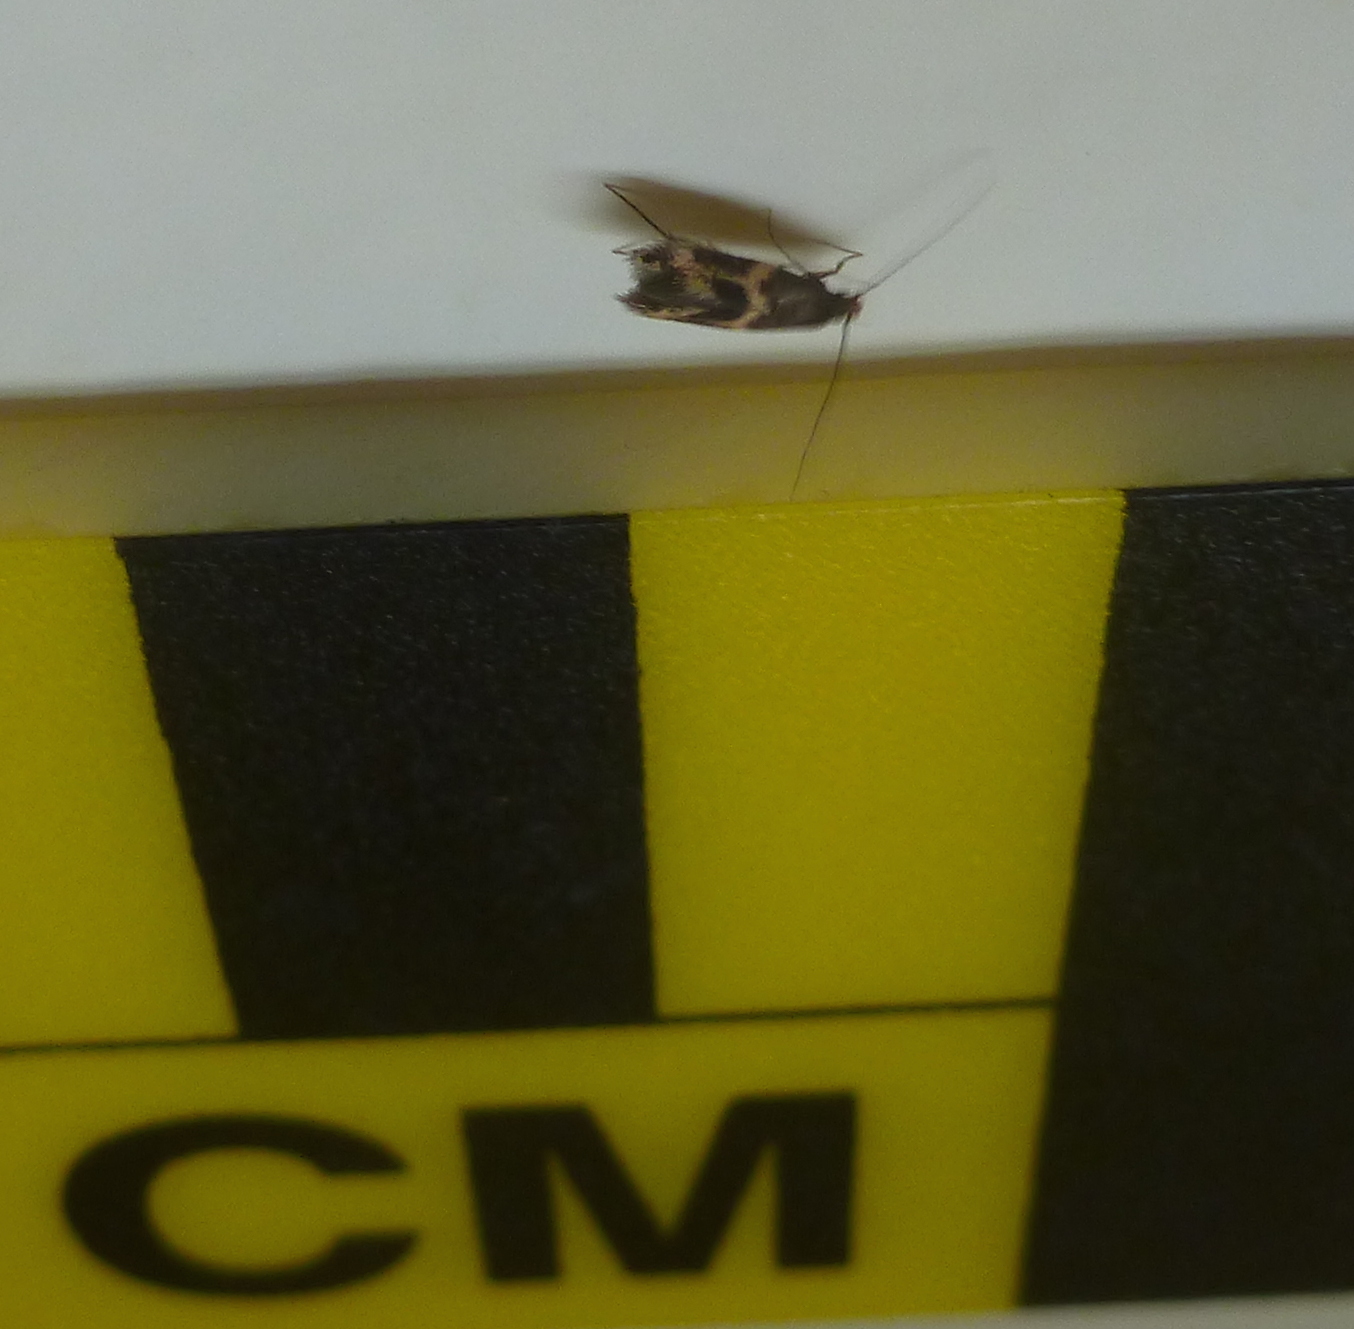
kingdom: Animalia
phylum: Arthropoda
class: Insecta
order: Lepidoptera
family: Tineidae
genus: Oinophila
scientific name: Oinophila v-flava
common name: Yellow v moth
